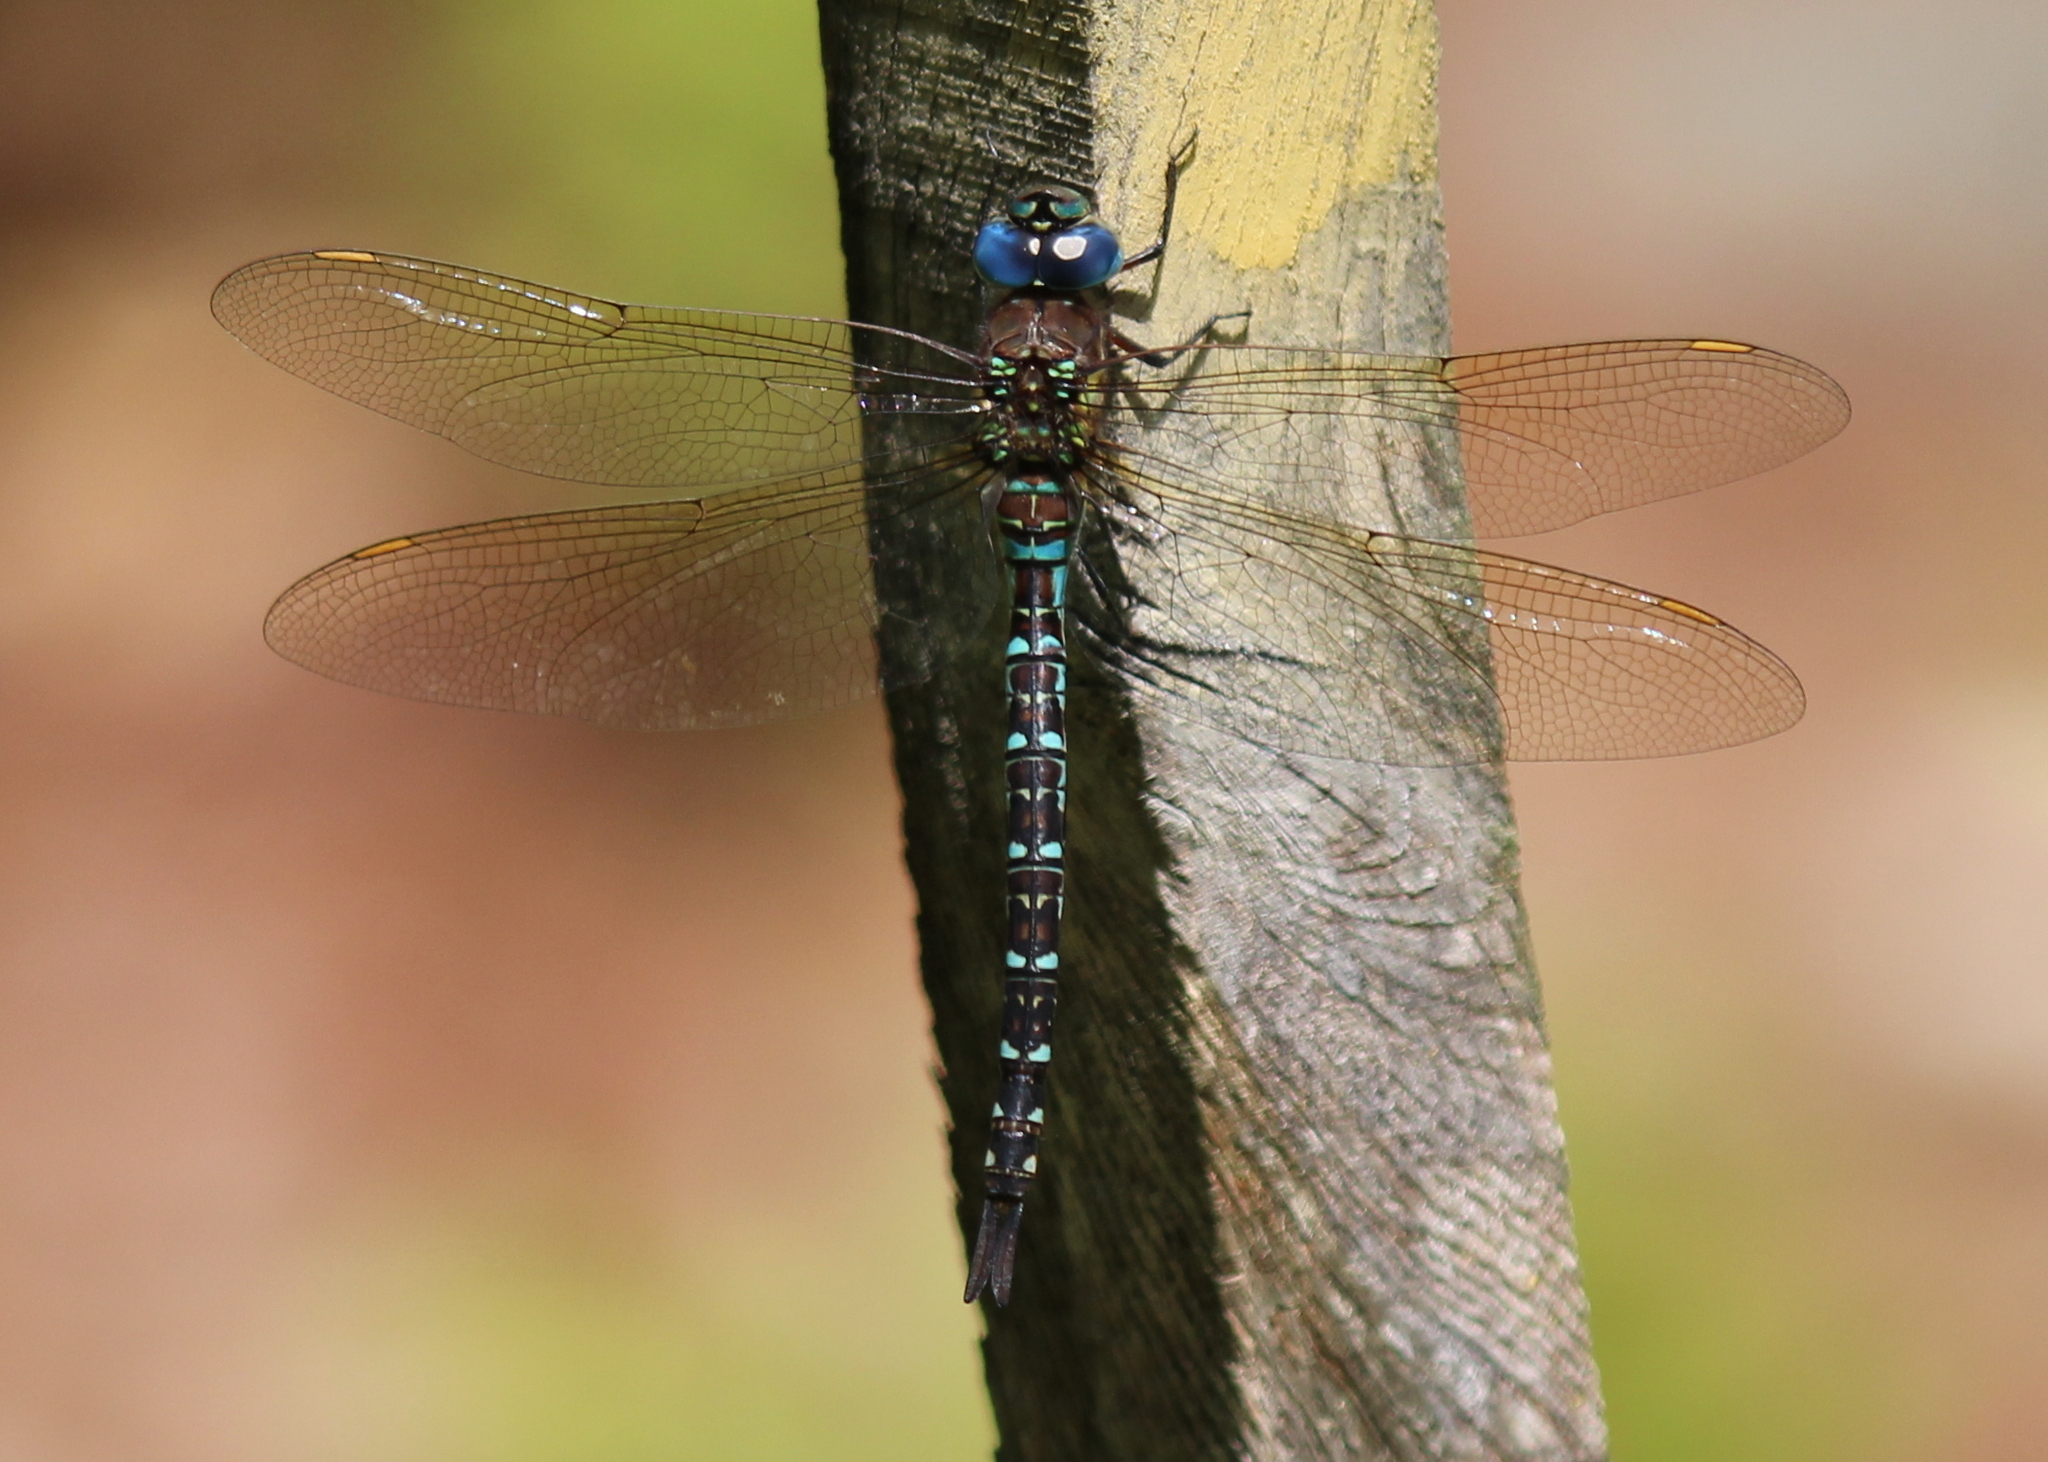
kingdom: Animalia
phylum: Arthropoda
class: Insecta
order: Odonata
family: Aeshnidae
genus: Rhionaeschna
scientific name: Rhionaeschna mutata
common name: Spatterdock darner
